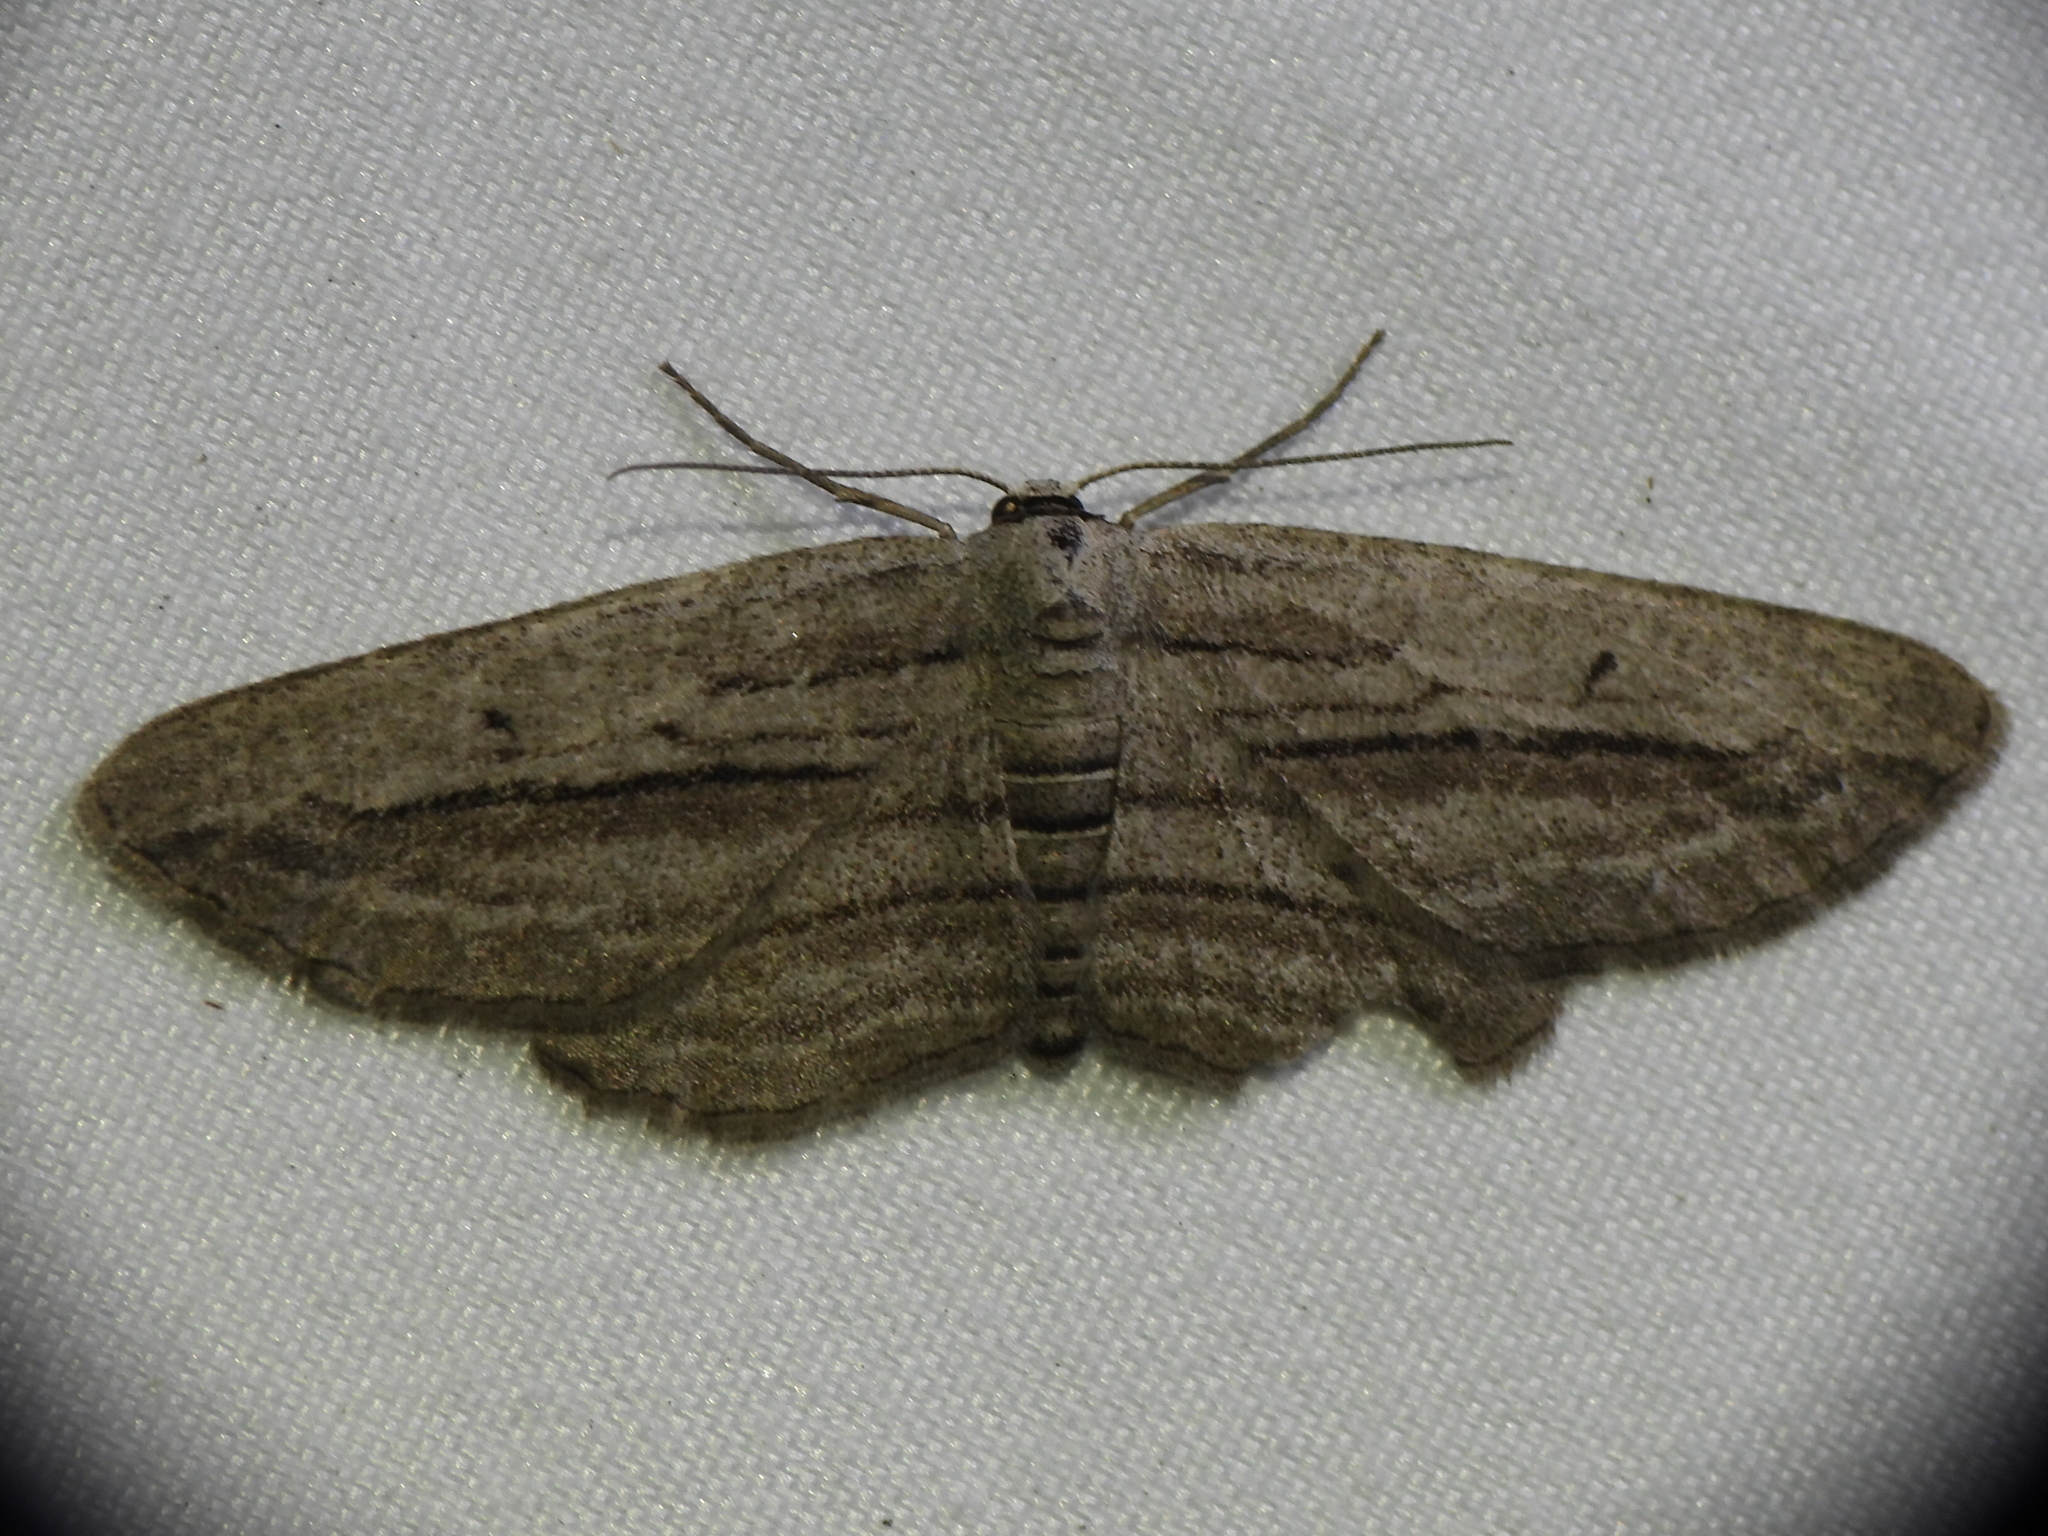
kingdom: Animalia
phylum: Arthropoda
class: Insecta
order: Lepidoptera
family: Geometridae
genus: Glena
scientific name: Glena quinquelinearia
